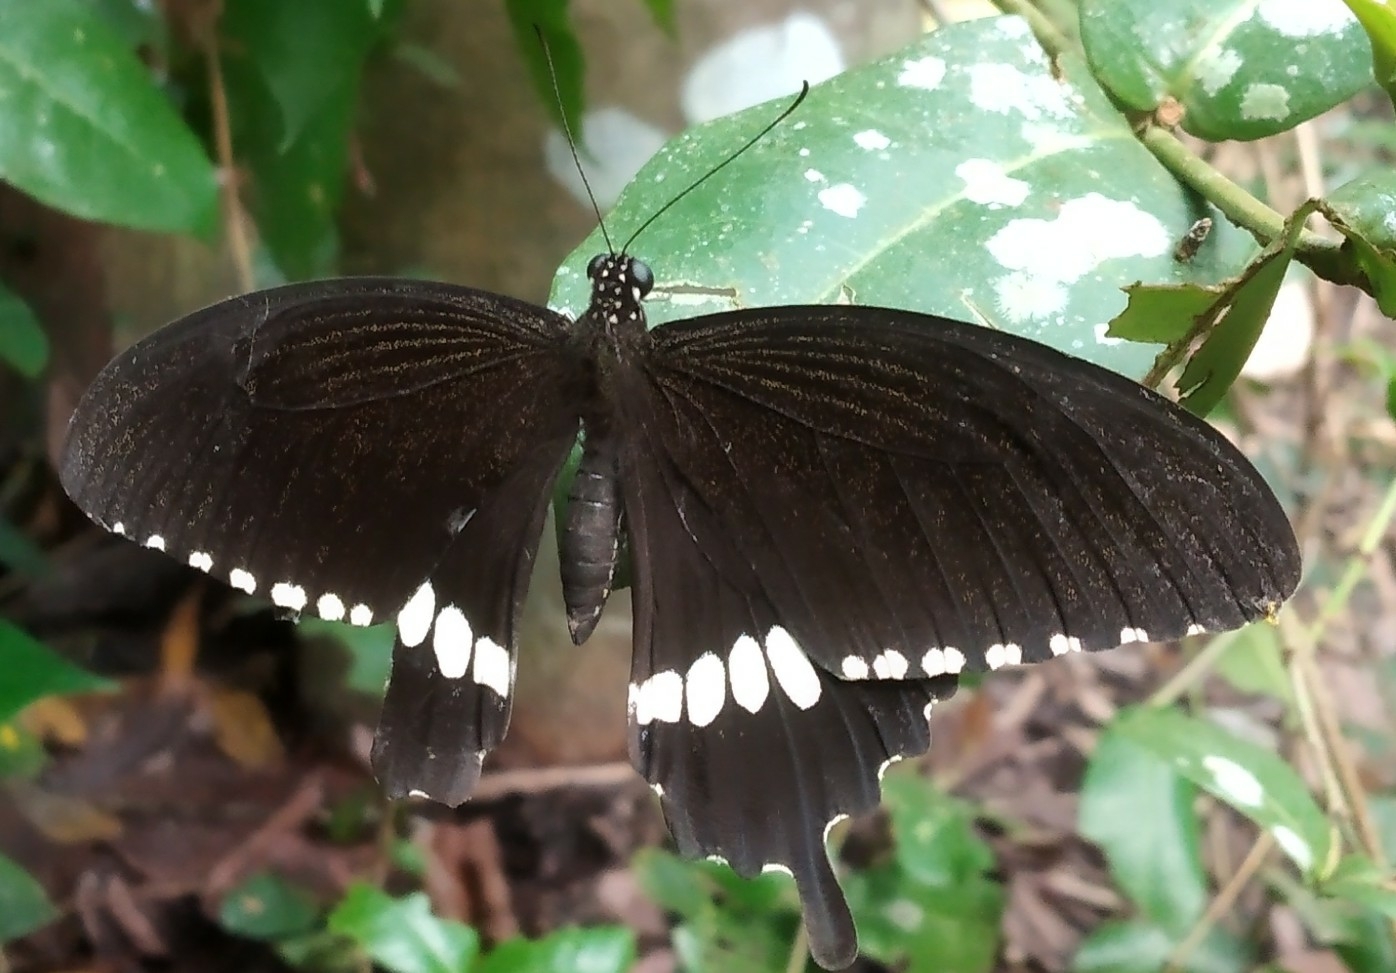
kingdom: Animalia
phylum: Arthropoda
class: Insecta
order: Lepidoptera
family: Papilionidae
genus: Papilio
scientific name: Papilio polytes
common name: Common mormon
